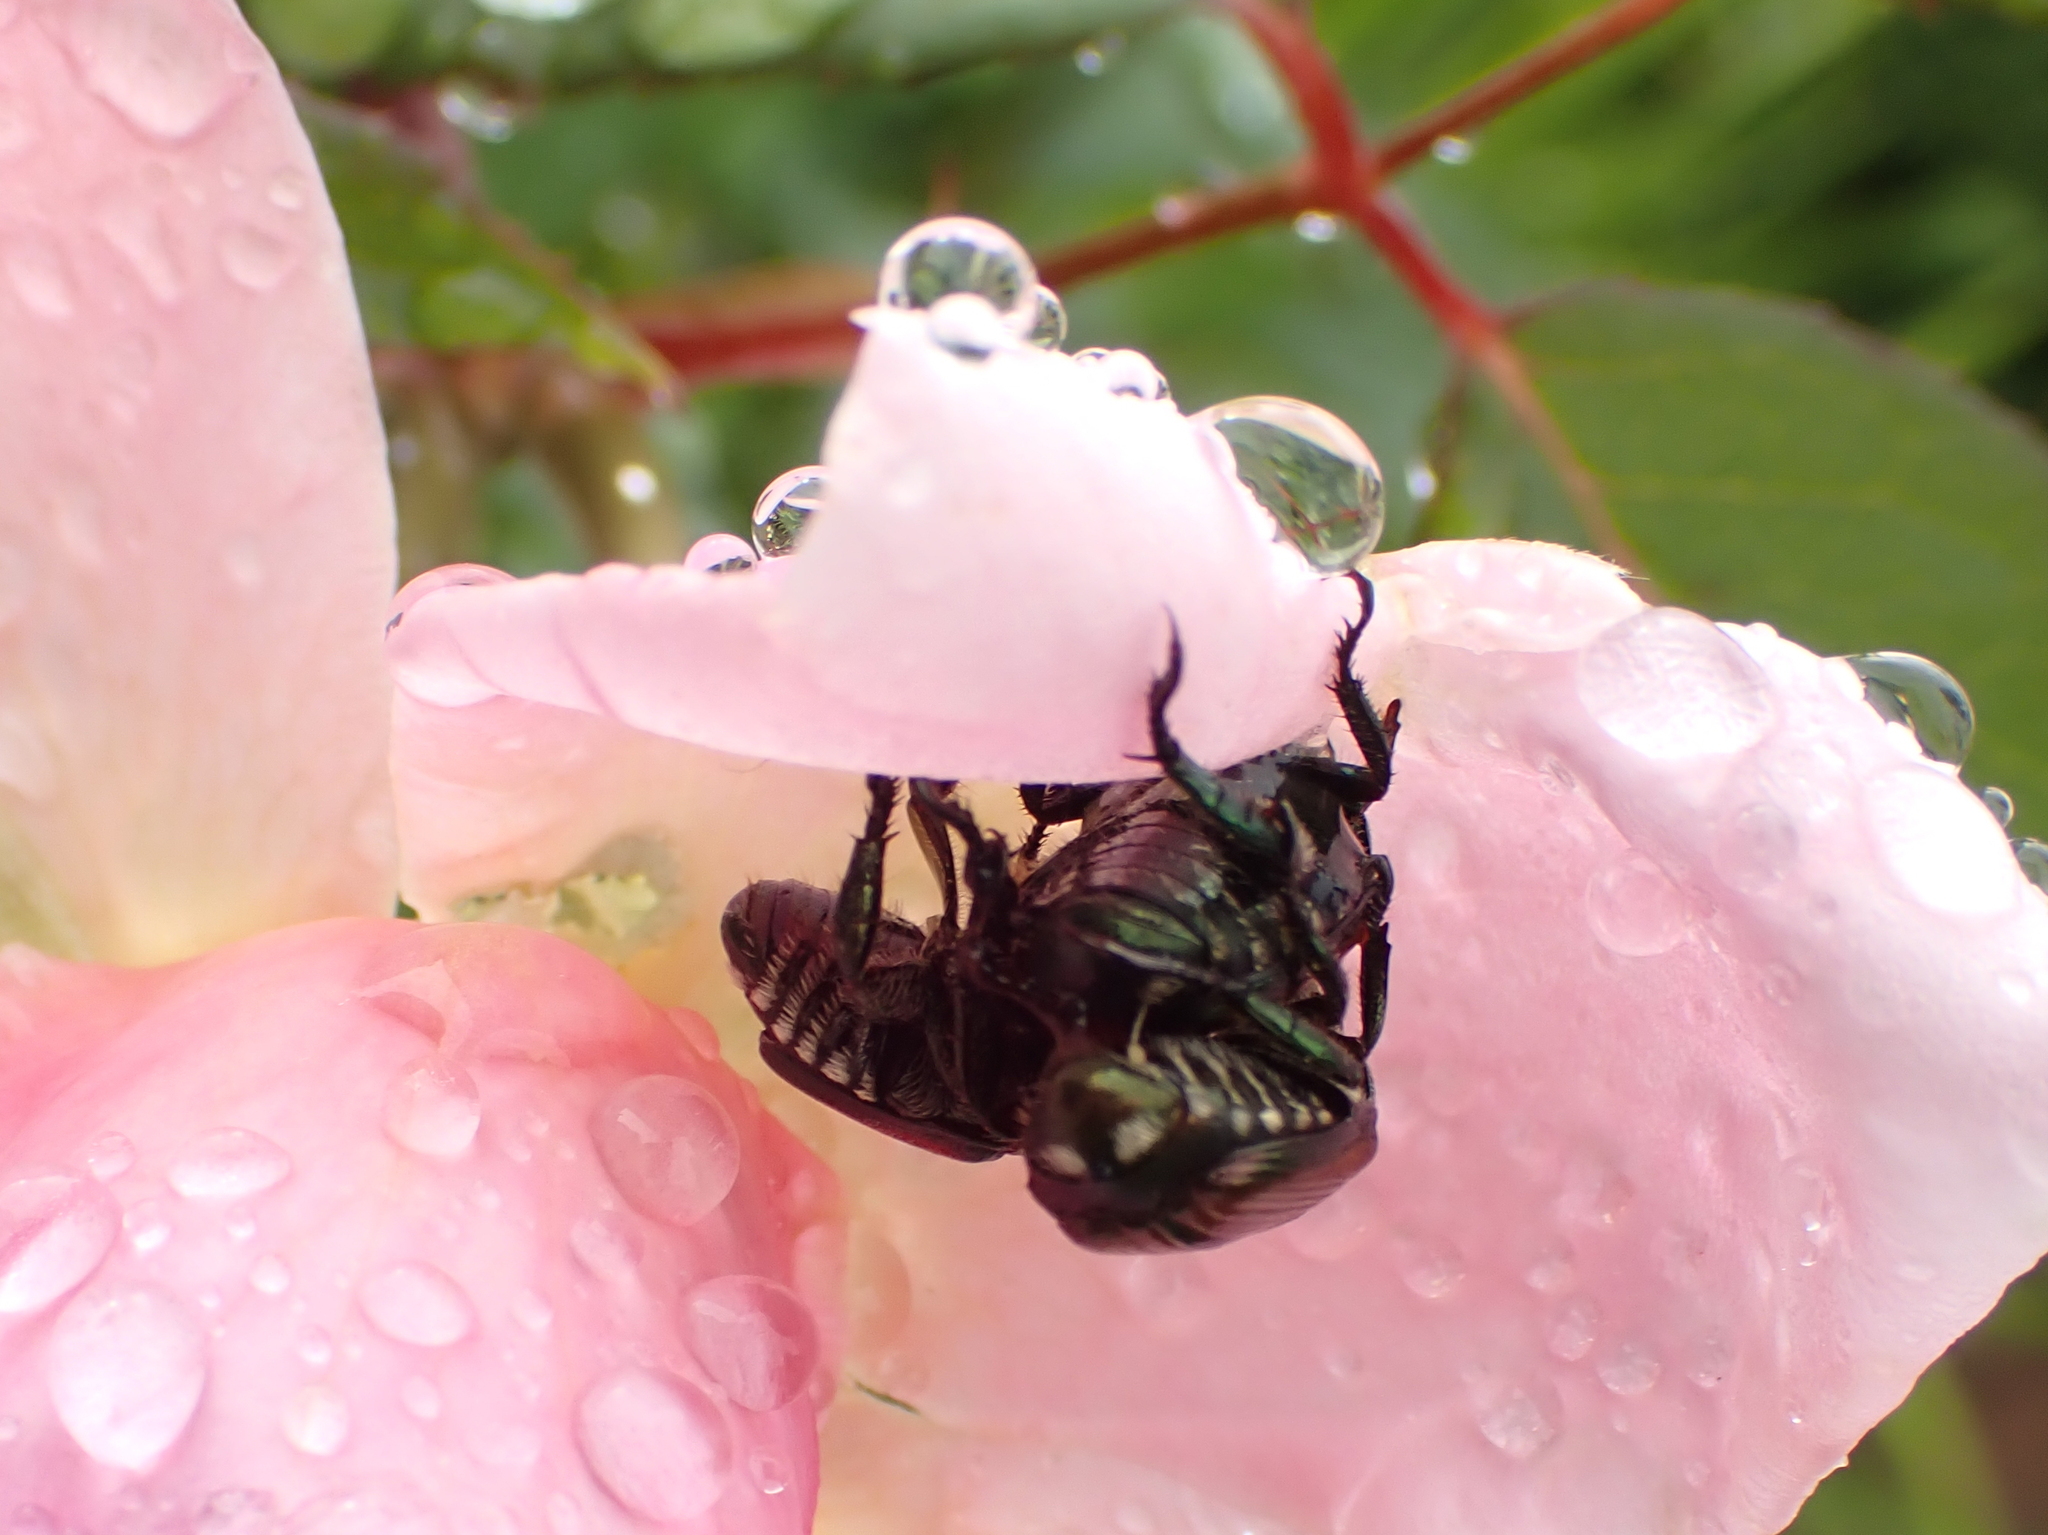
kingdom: Animalia
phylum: Arthropoda
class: Insecta
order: Coleoptera
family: Scarabaeidae
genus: Popillia
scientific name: Popillia japonica
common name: Japanese beetle
